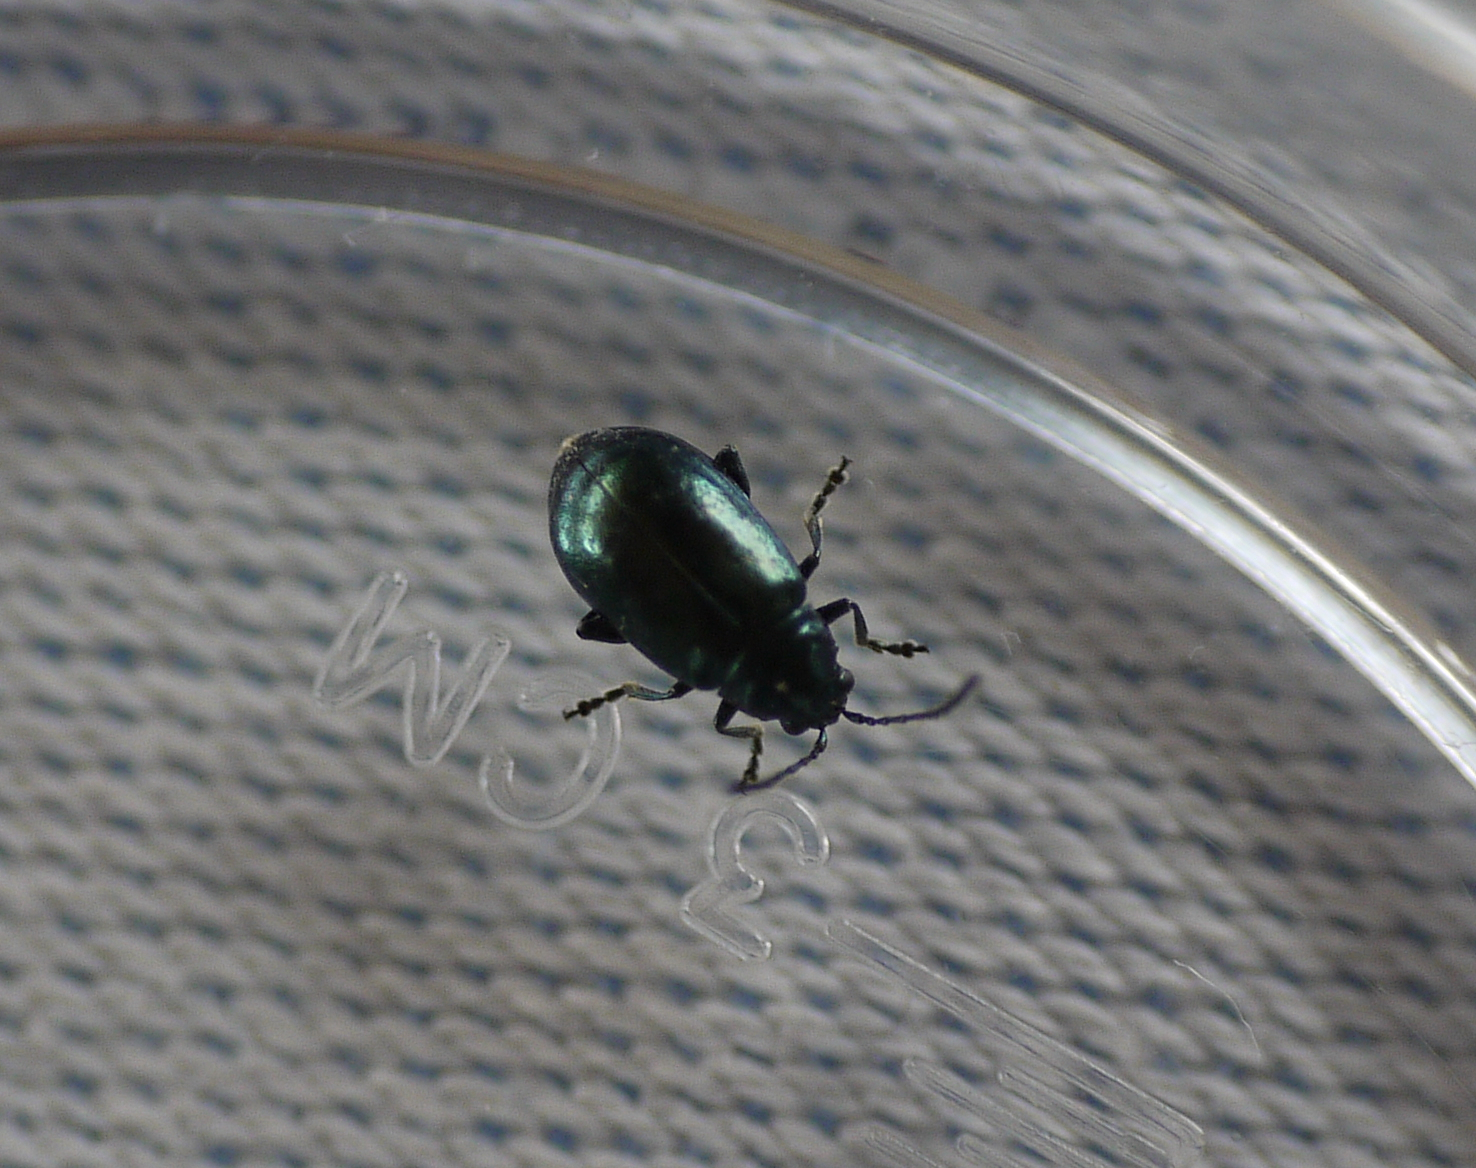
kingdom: Animalia
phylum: Arthropoda
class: Insecta
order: Coleoptera
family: Chrysomelidae
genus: Altica
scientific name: Altica
